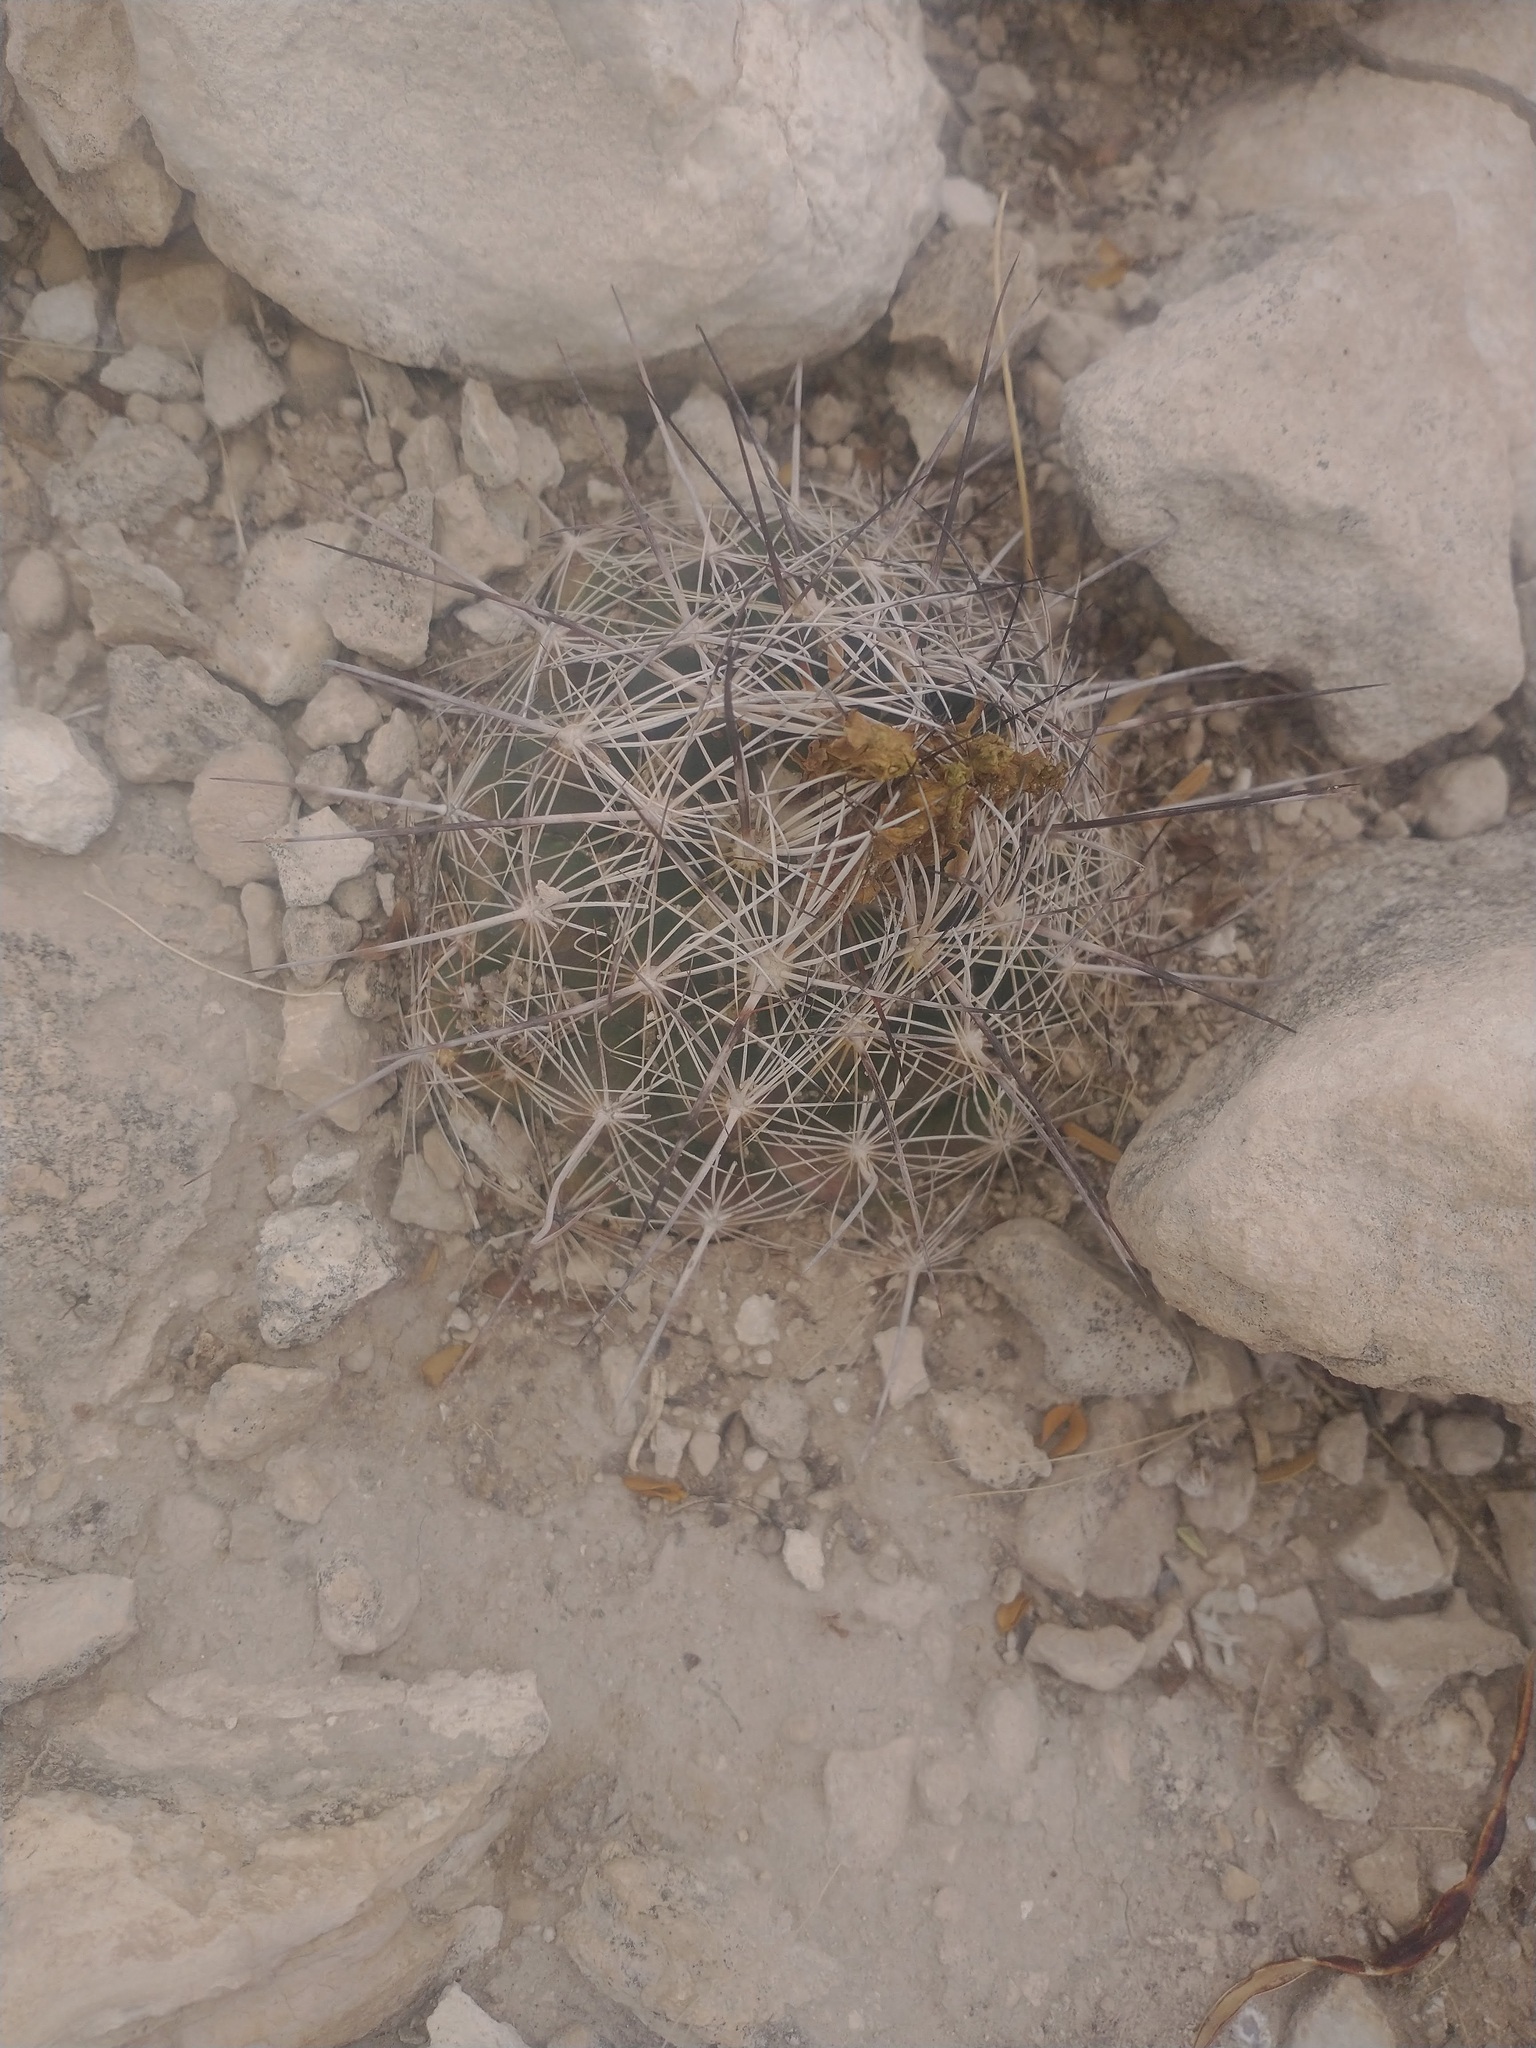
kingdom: Plantae
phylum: Tracheophyta
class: Magnoliopsida
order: Caryophyllales
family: Cactaceae
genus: Coryphantha
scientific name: Coryphantha echinus
